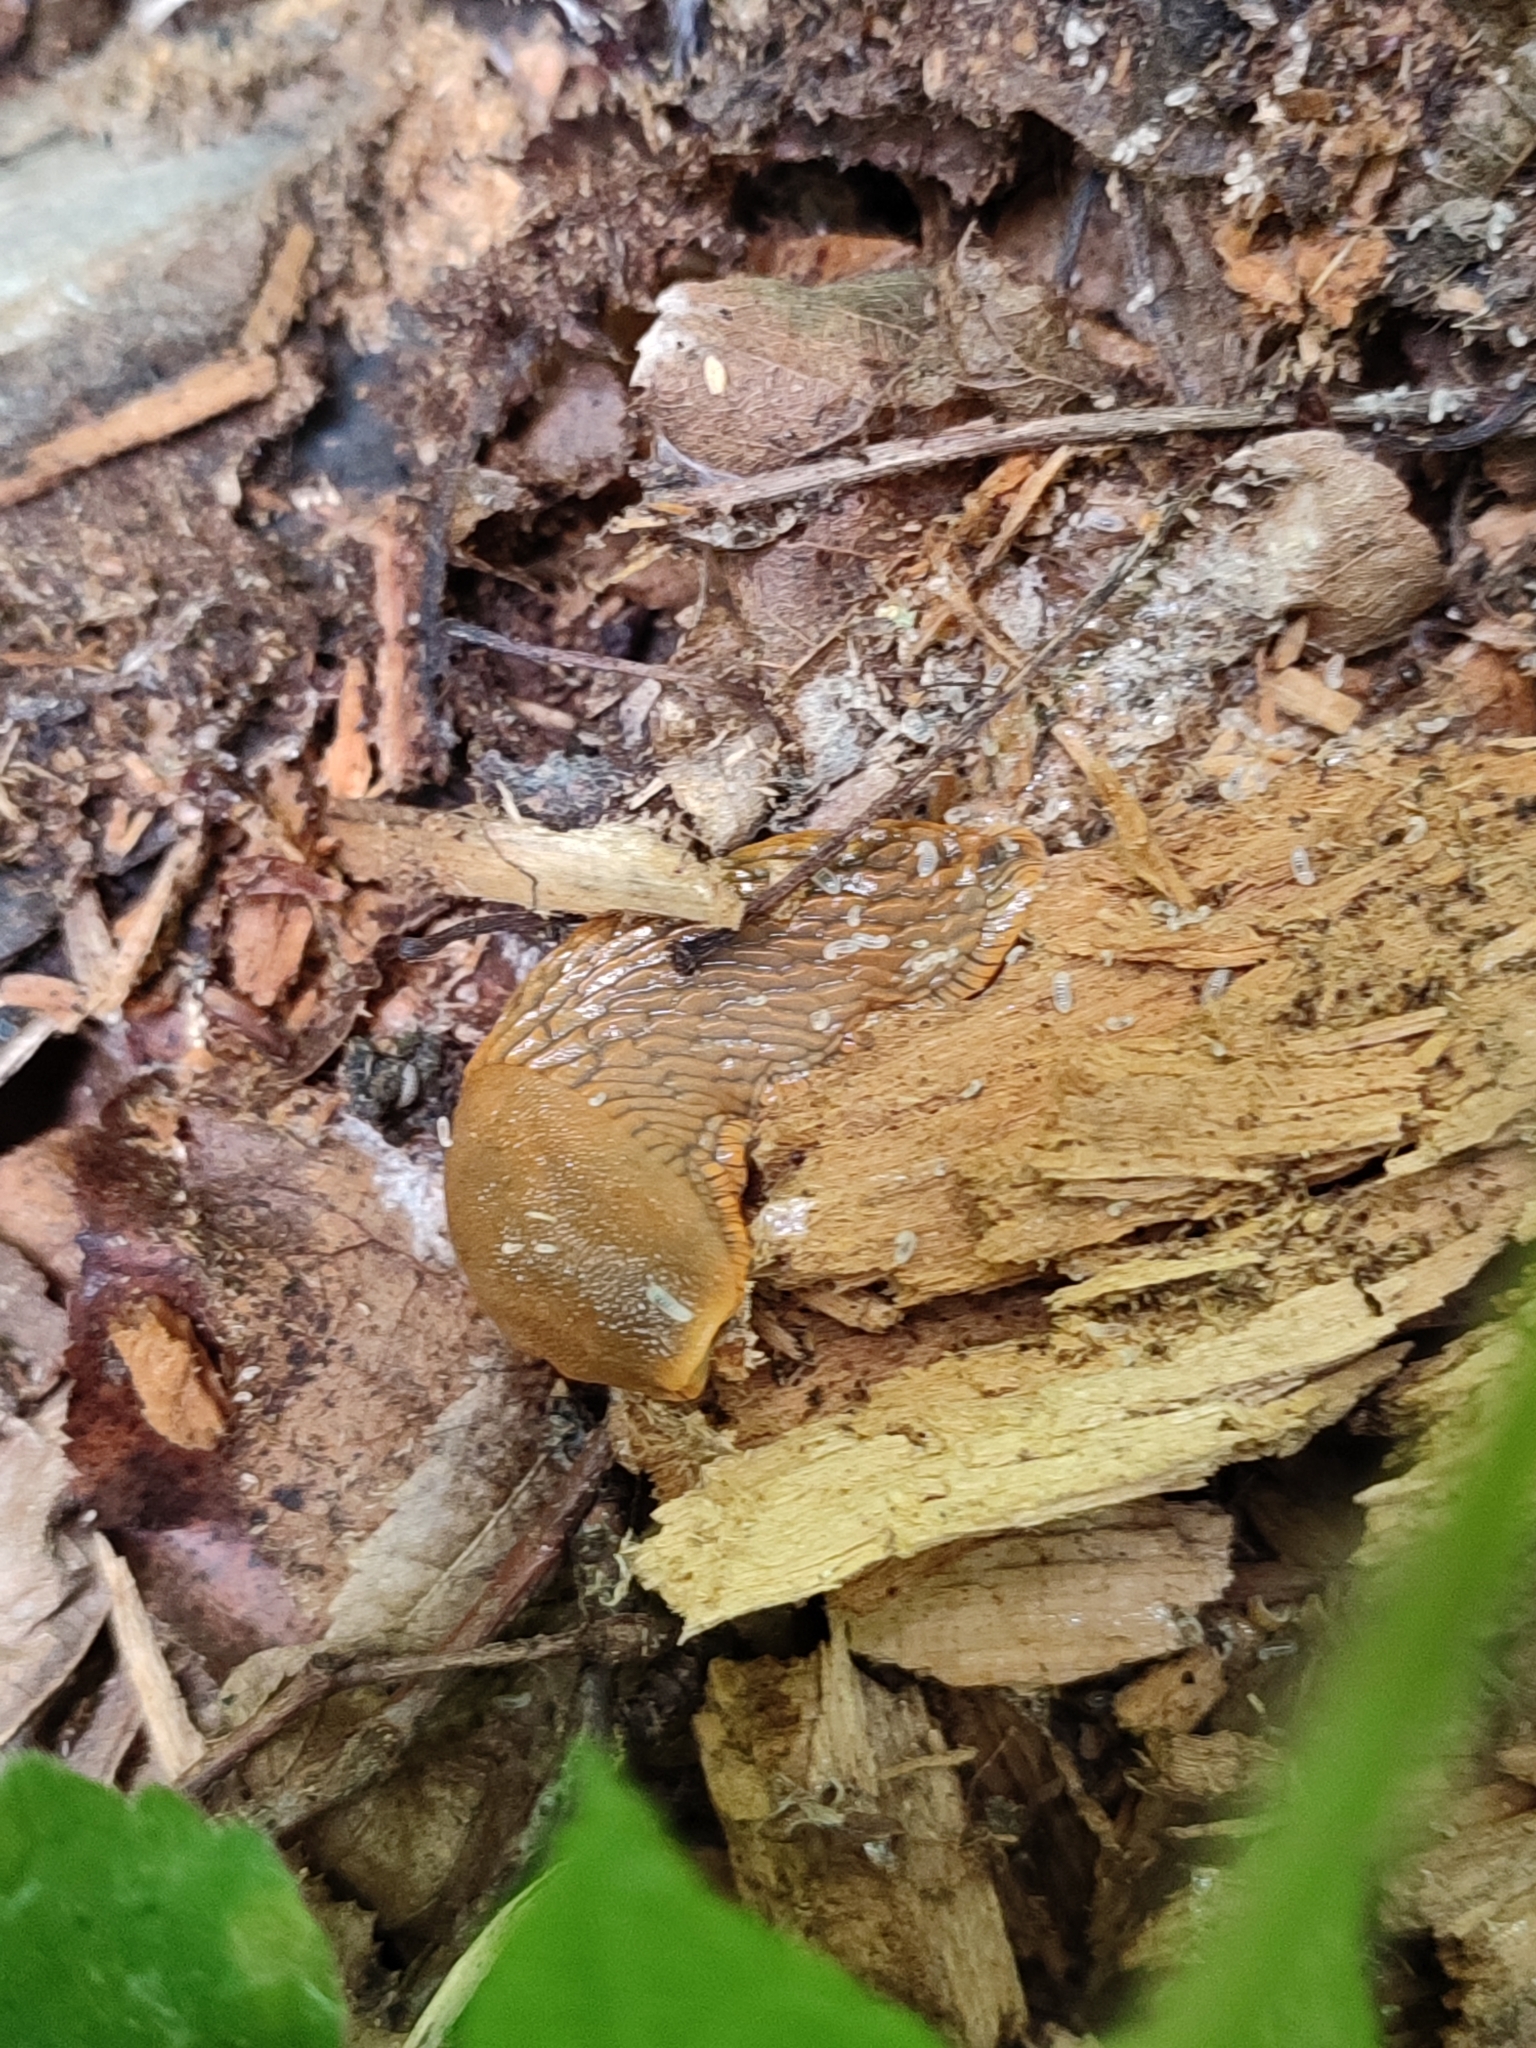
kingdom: Animalia
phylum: Mollusca
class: Gastropoda
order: Stylommatophora
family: Arionidae
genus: Arion
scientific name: Arion vulgaris
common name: Lusitanian slug
